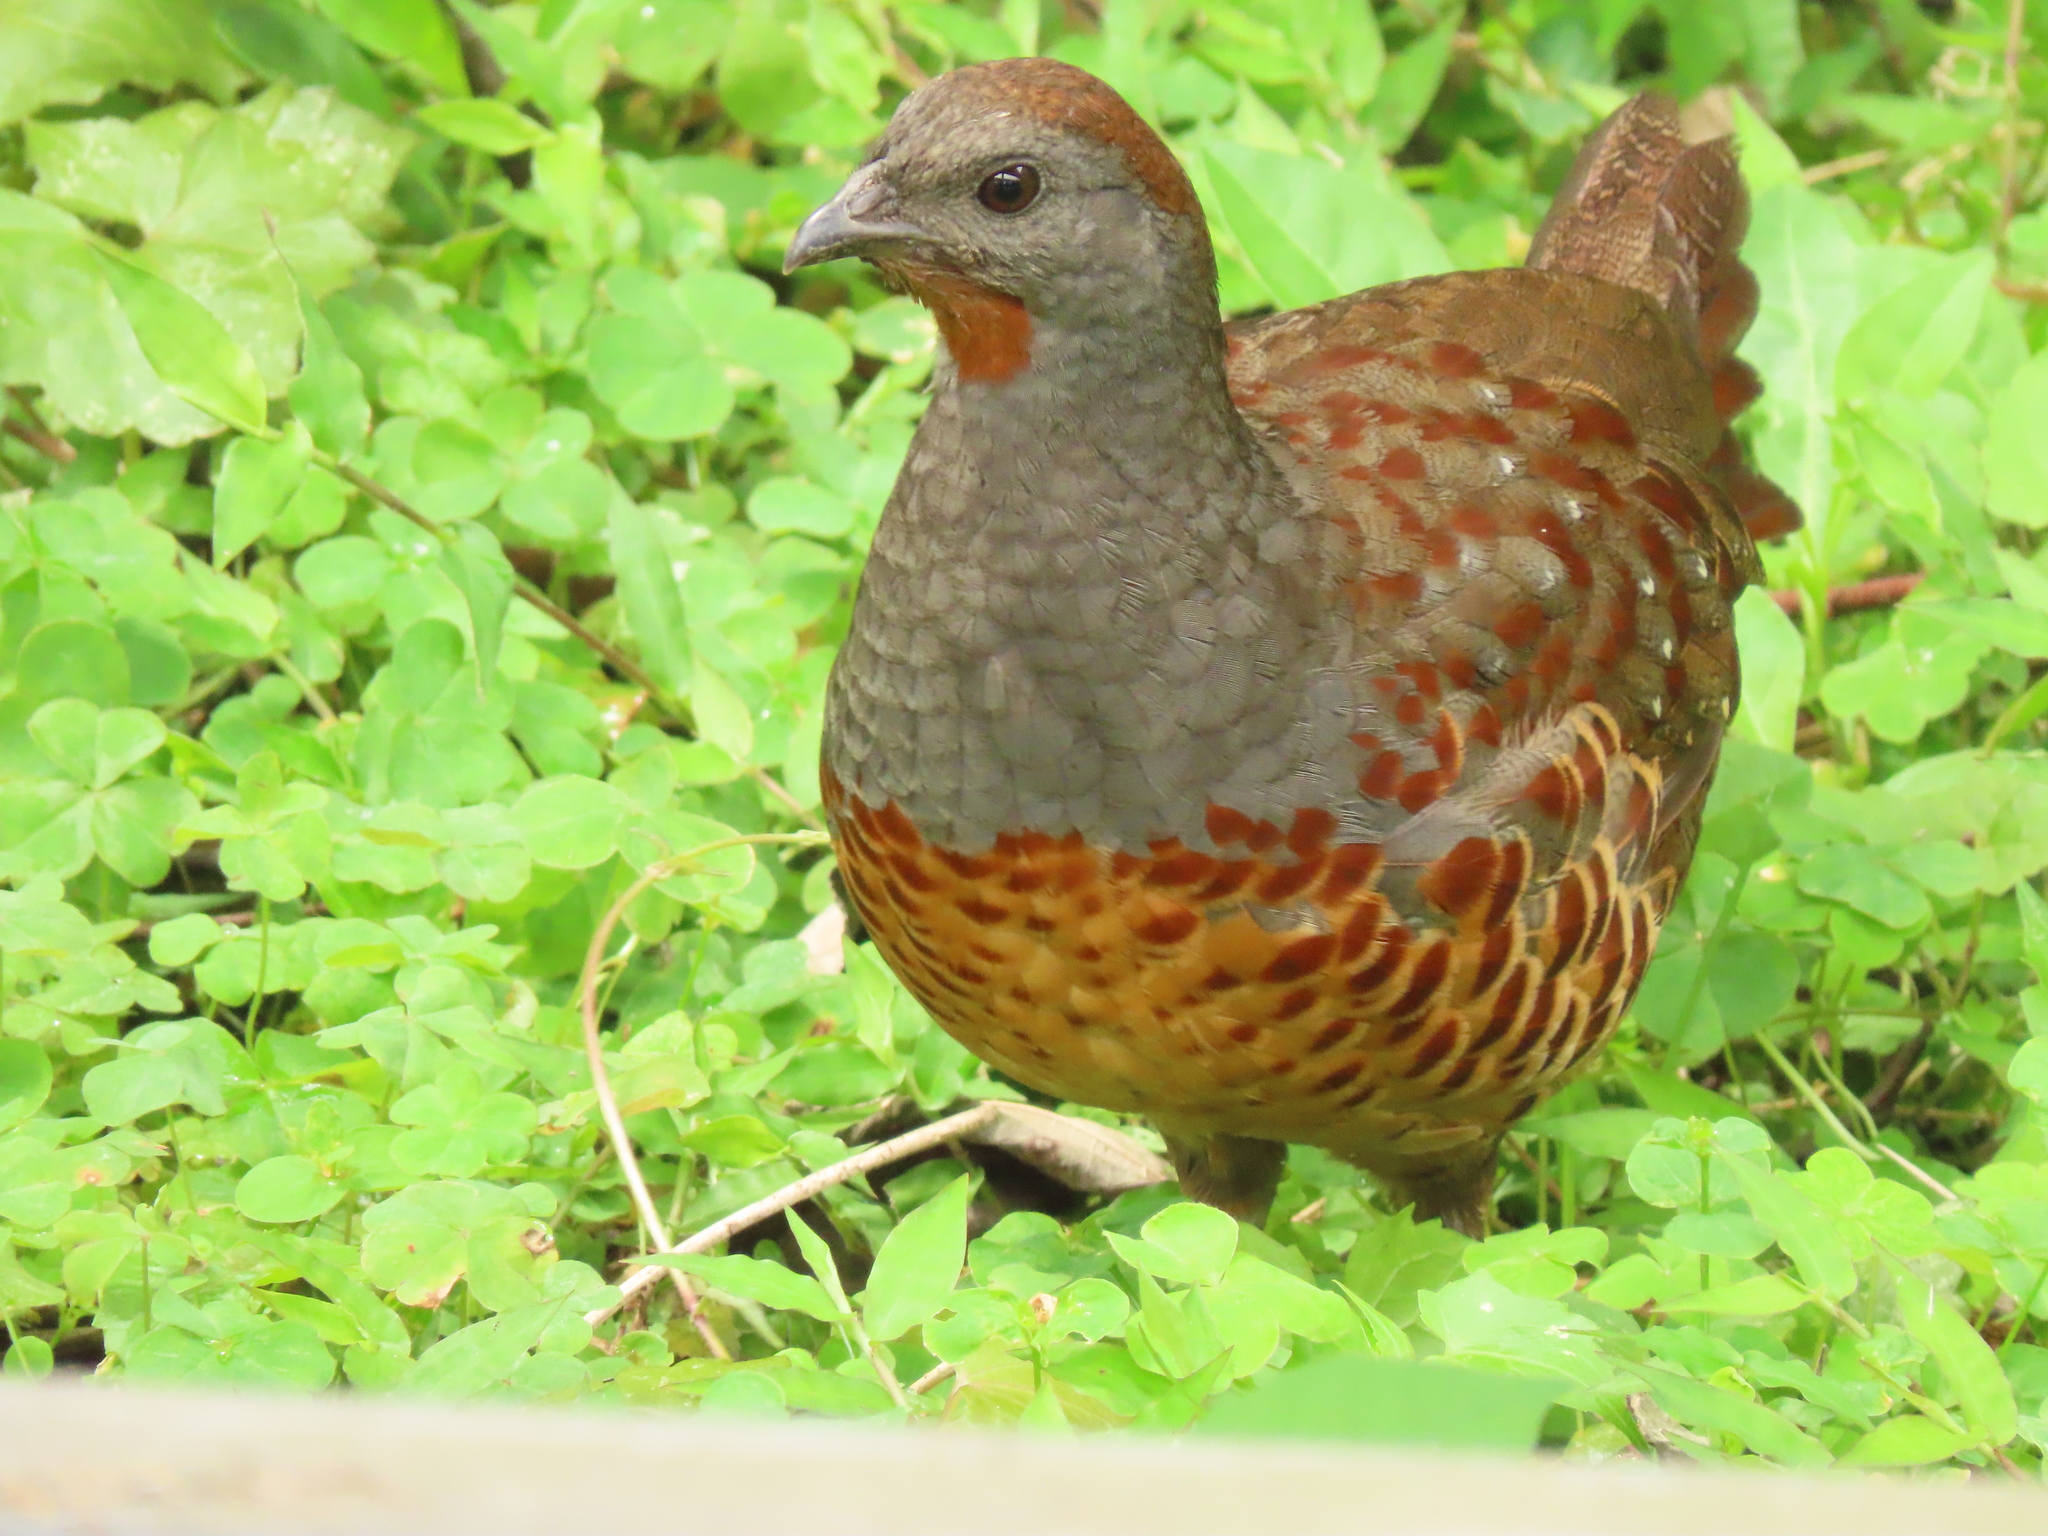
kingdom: Animalia
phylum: Chordata
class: Aves
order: Galliformes
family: Phasianidae
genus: Bambusicola
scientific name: Bambusicola sonorivox
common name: Taiwan bamboo-partridge
